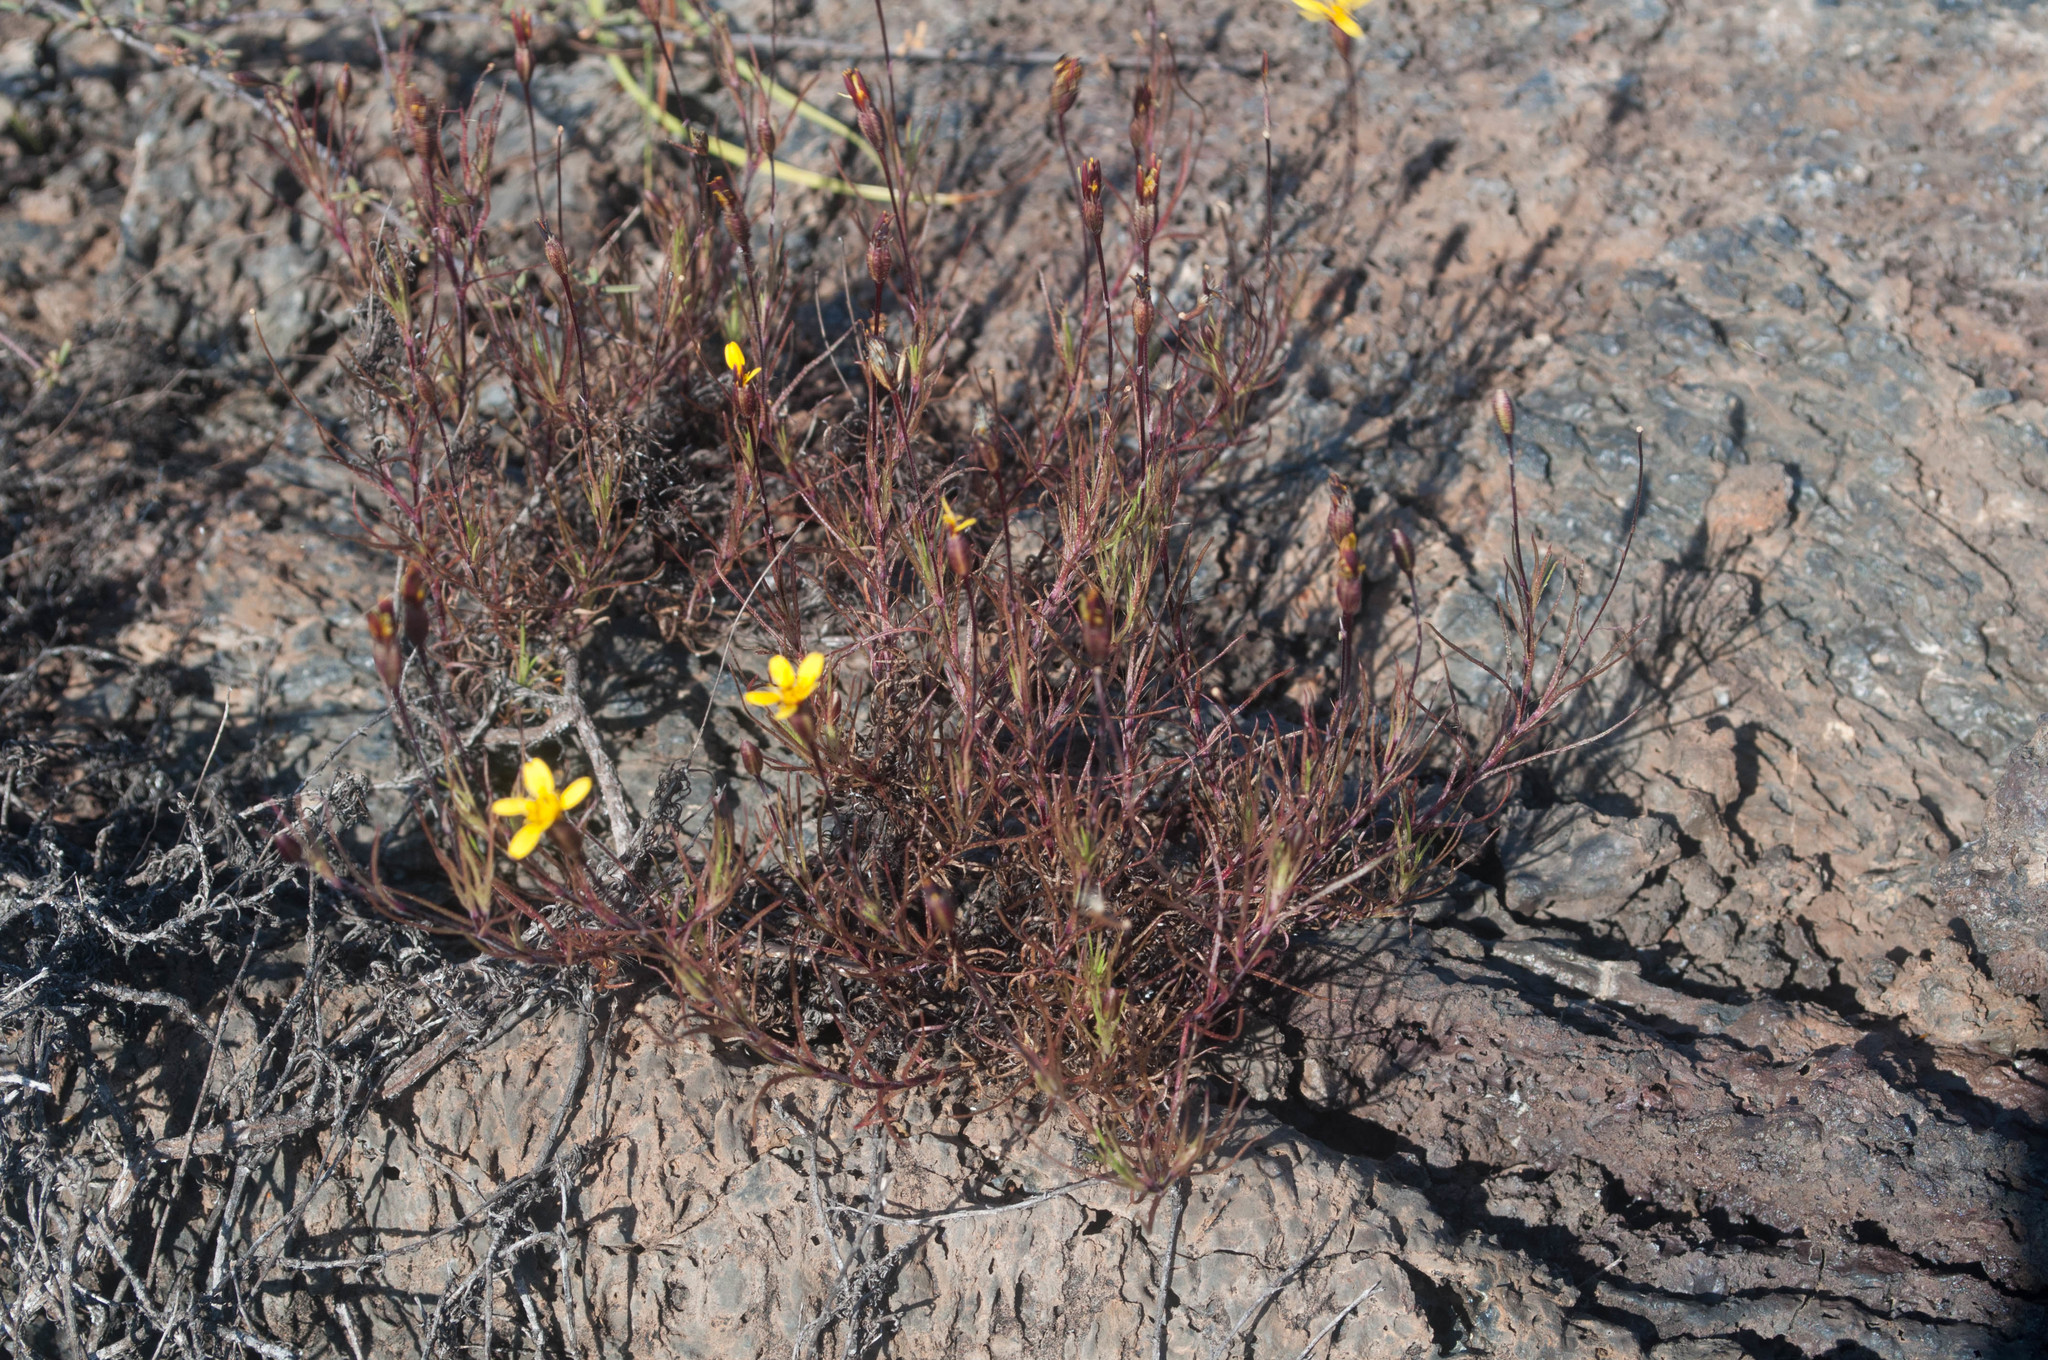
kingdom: Plantae
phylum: Tracheophyta
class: Magnoliopsida
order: Asterales
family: Asteraceae
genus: Pectis
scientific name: Pectis tenuifolia
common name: Oily pectis
